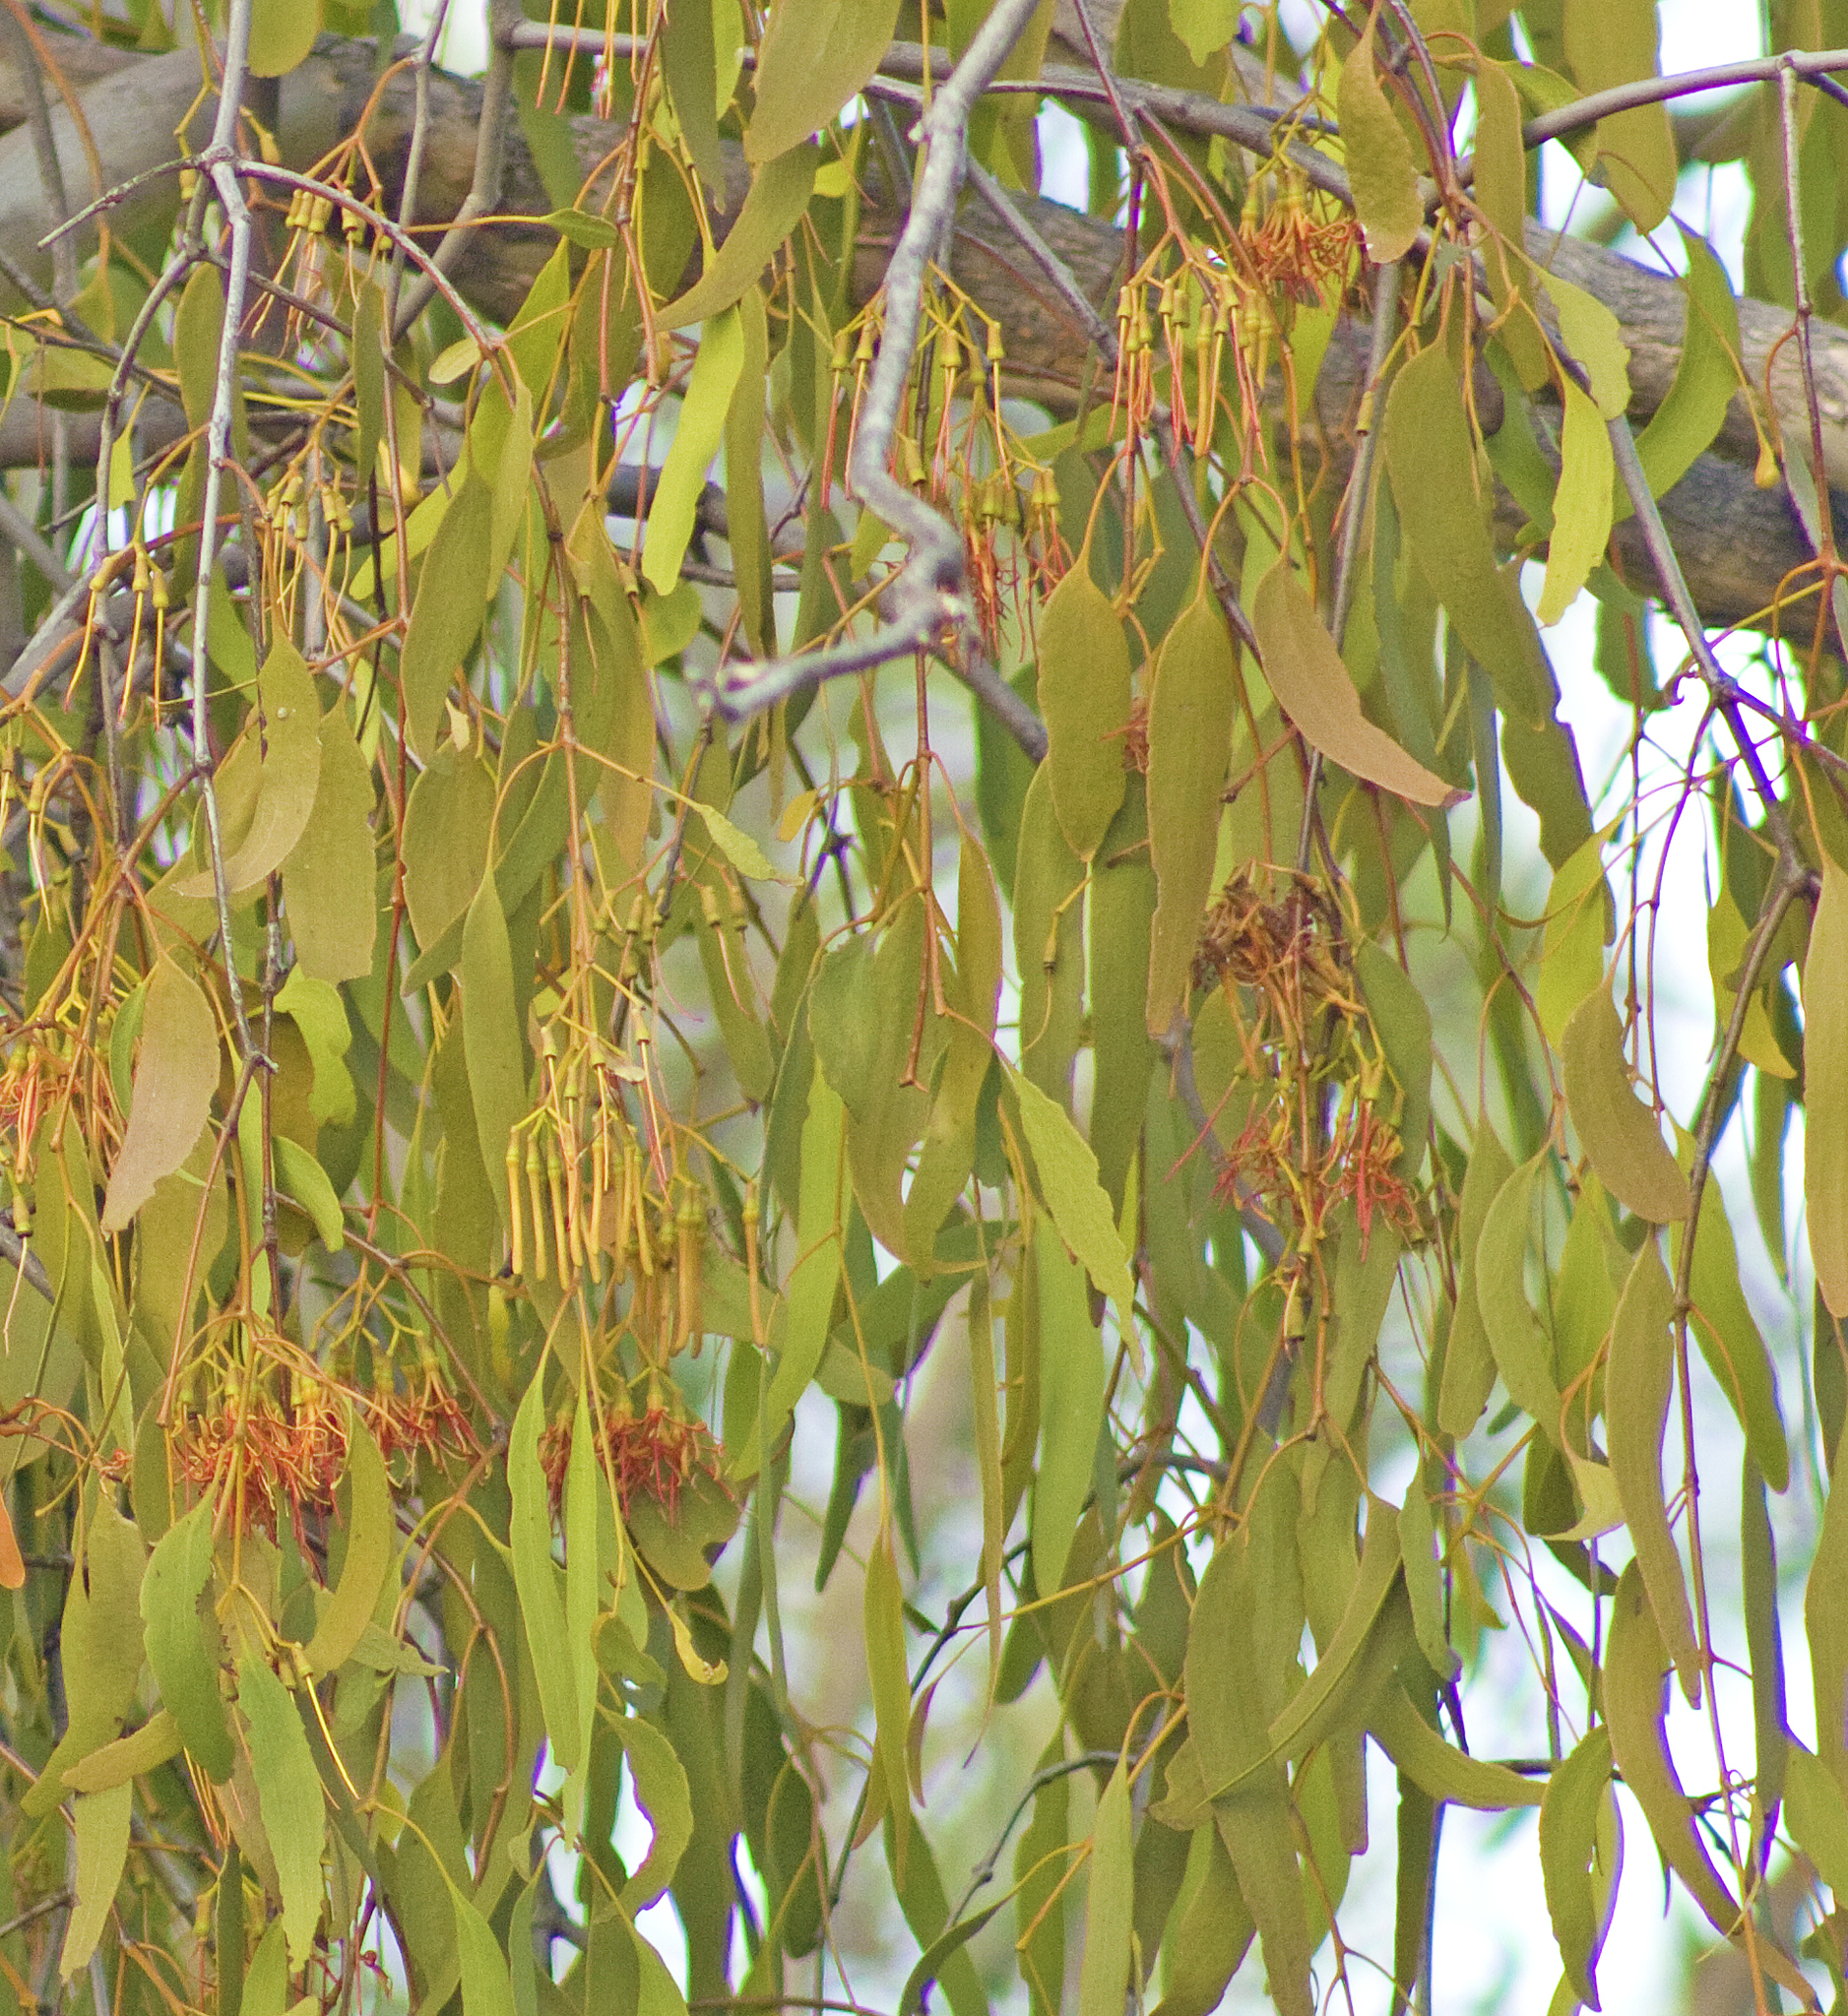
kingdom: Plantae
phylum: Tracheophyta
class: Magnoliopsida
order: Santalales
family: Loranthaceae
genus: Amyema
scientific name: Amyema miquelii
